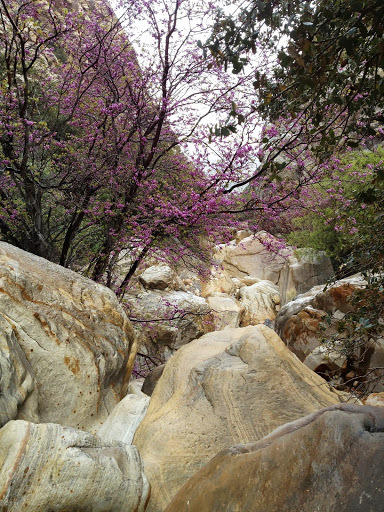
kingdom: Plantae
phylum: Tracheophyta
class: Magnoliopsida
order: Fabales
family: Fabaceae
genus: Cercis
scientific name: Cercis occidentalis
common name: California redbud
